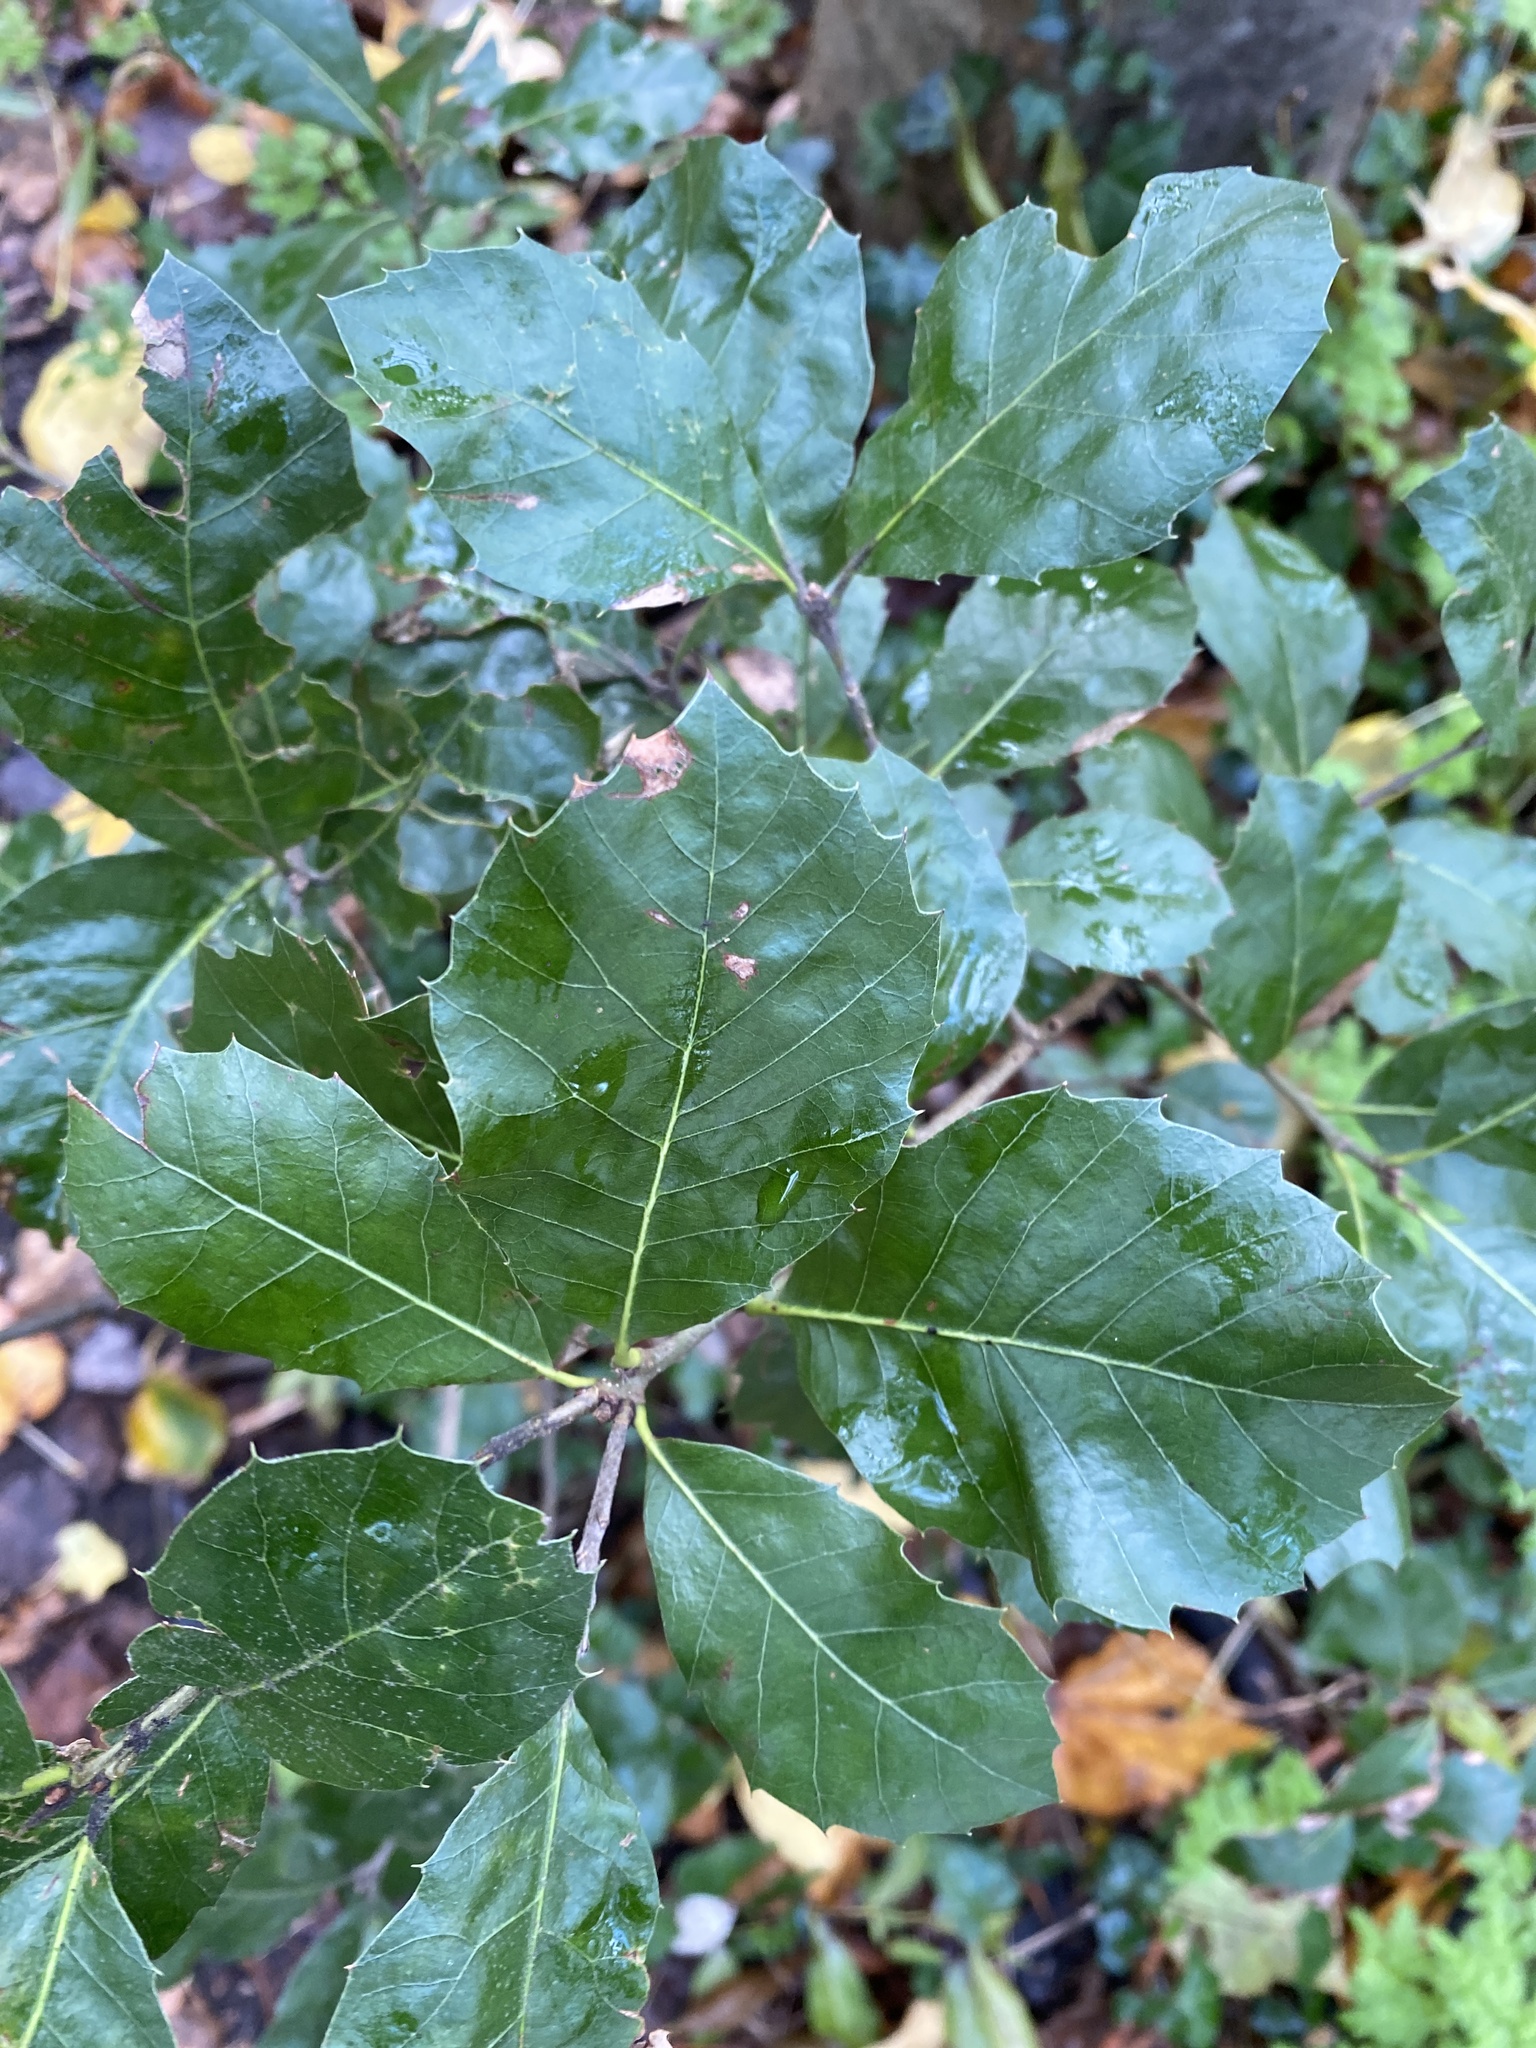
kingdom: Plantae
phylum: Tracheophyta
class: Magnoliopsida
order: Fagales
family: Fagaceae
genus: Quercus
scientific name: Quercus ilex
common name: Evergreen oak
